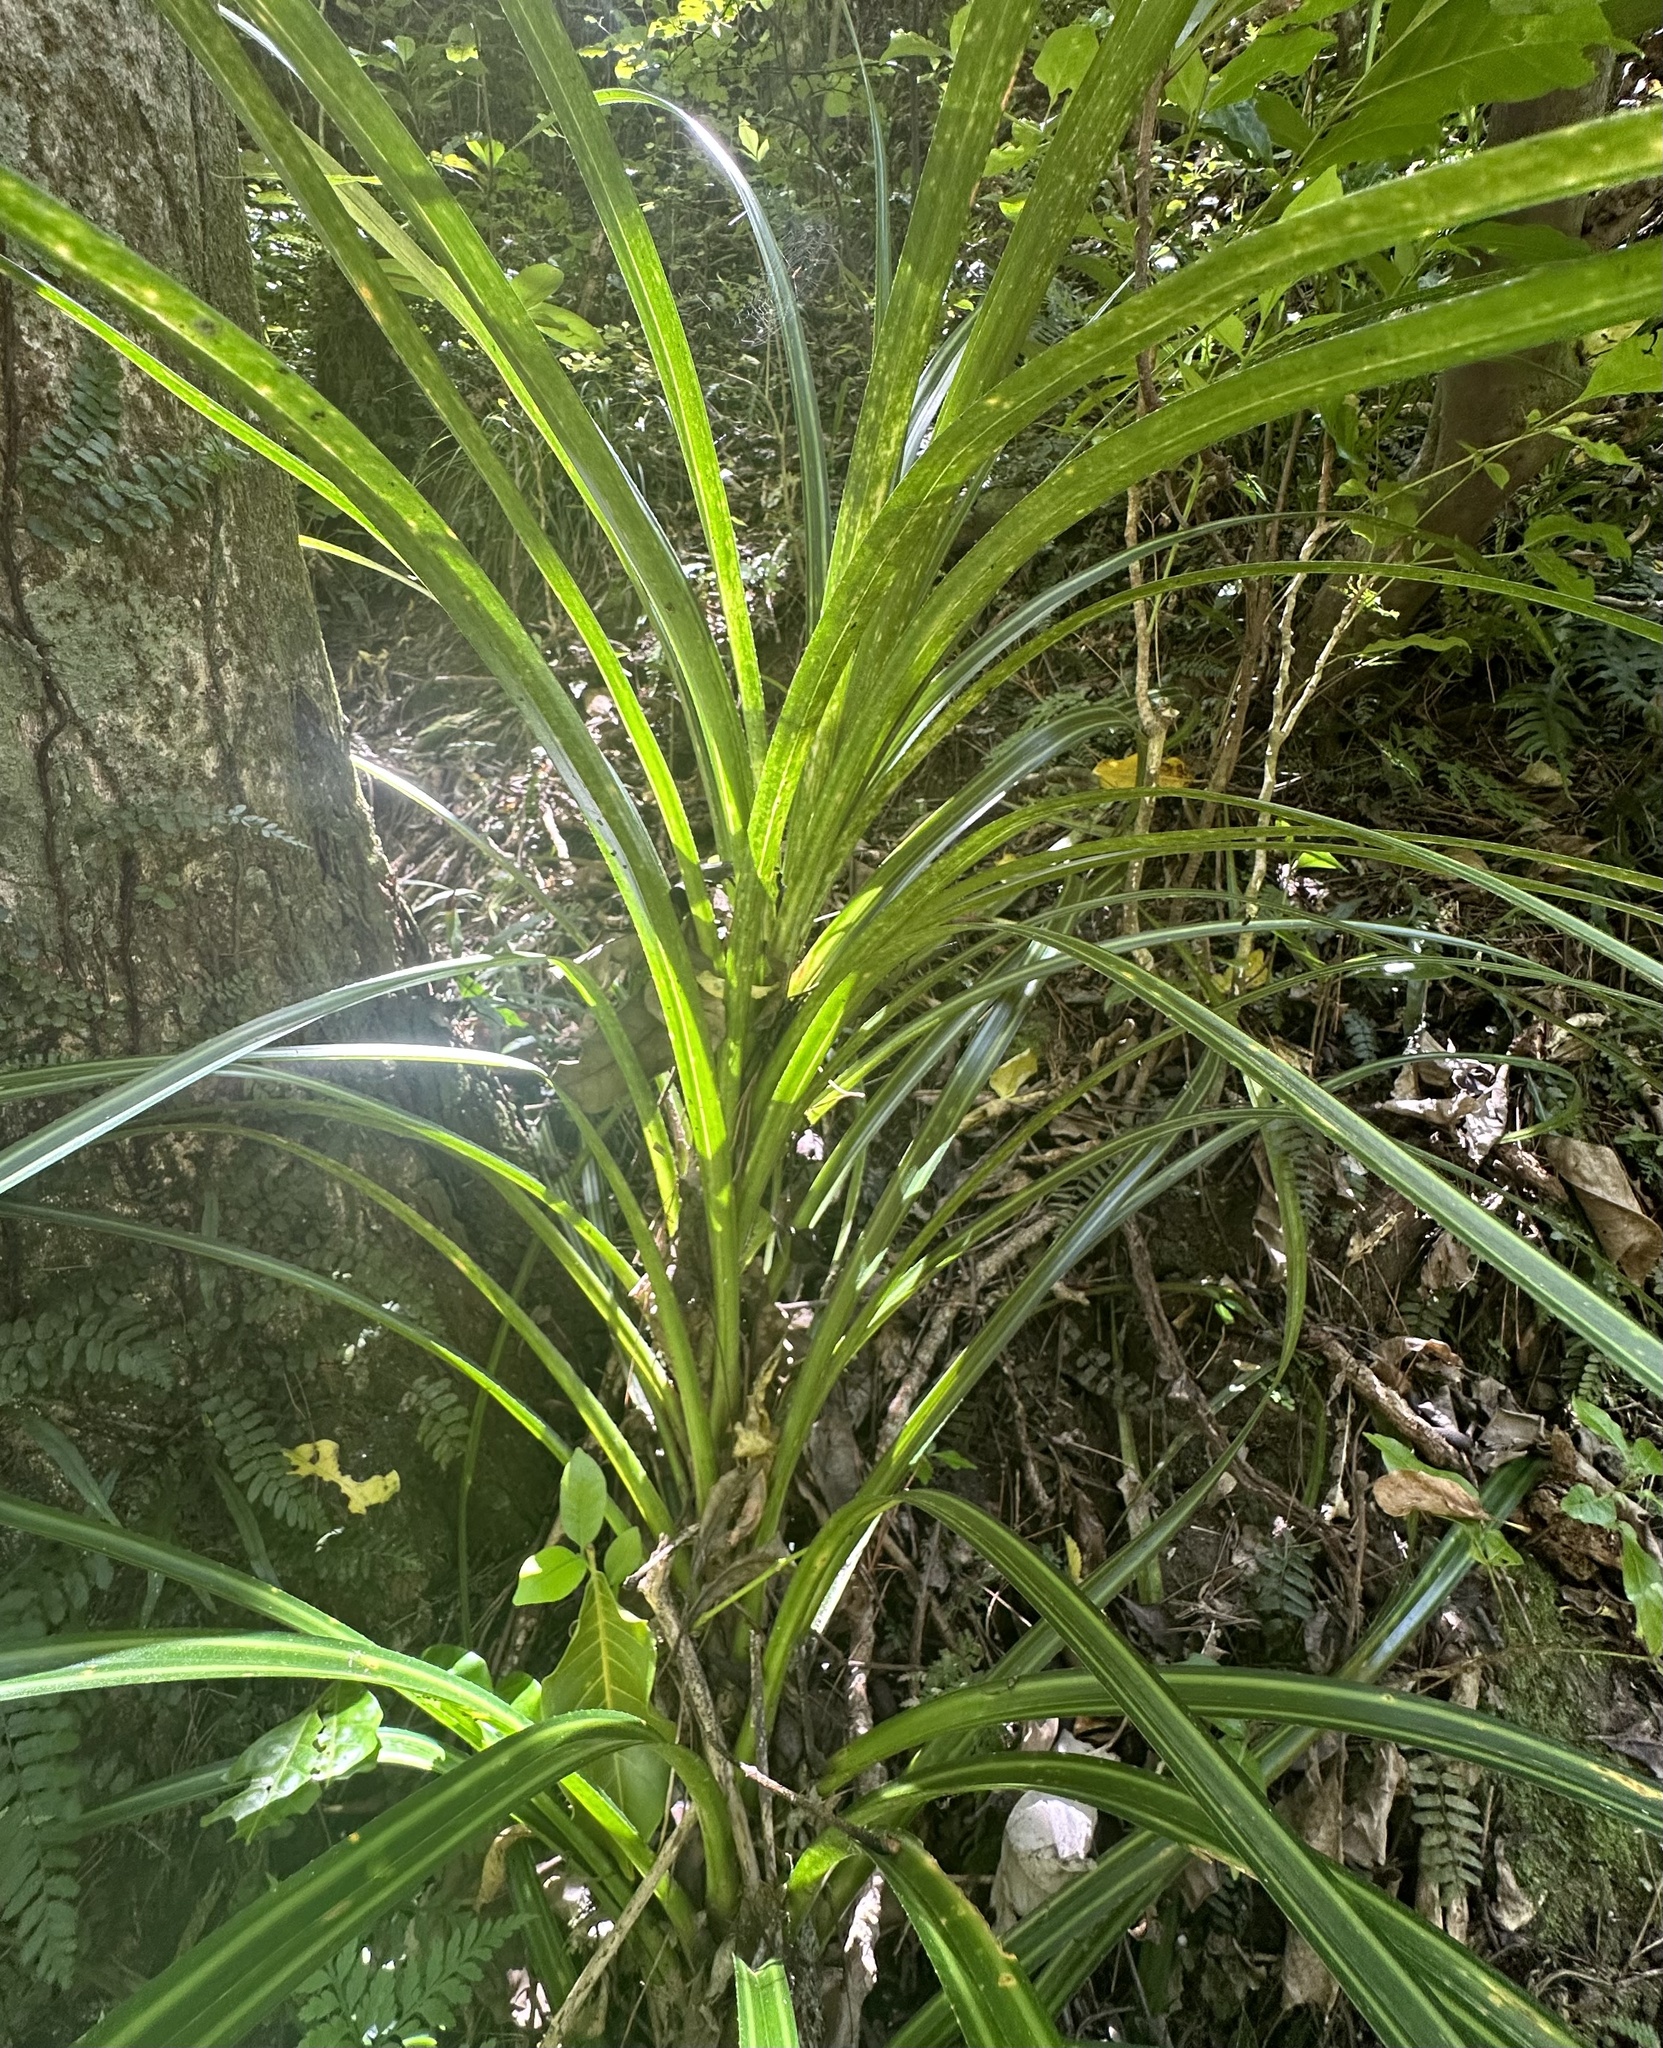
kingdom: Plantae
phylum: Tracheophyta
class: Liliopsida
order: Pandanales
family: Pandanaceae
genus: Freycinetia
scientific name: Freycinetia banksii
